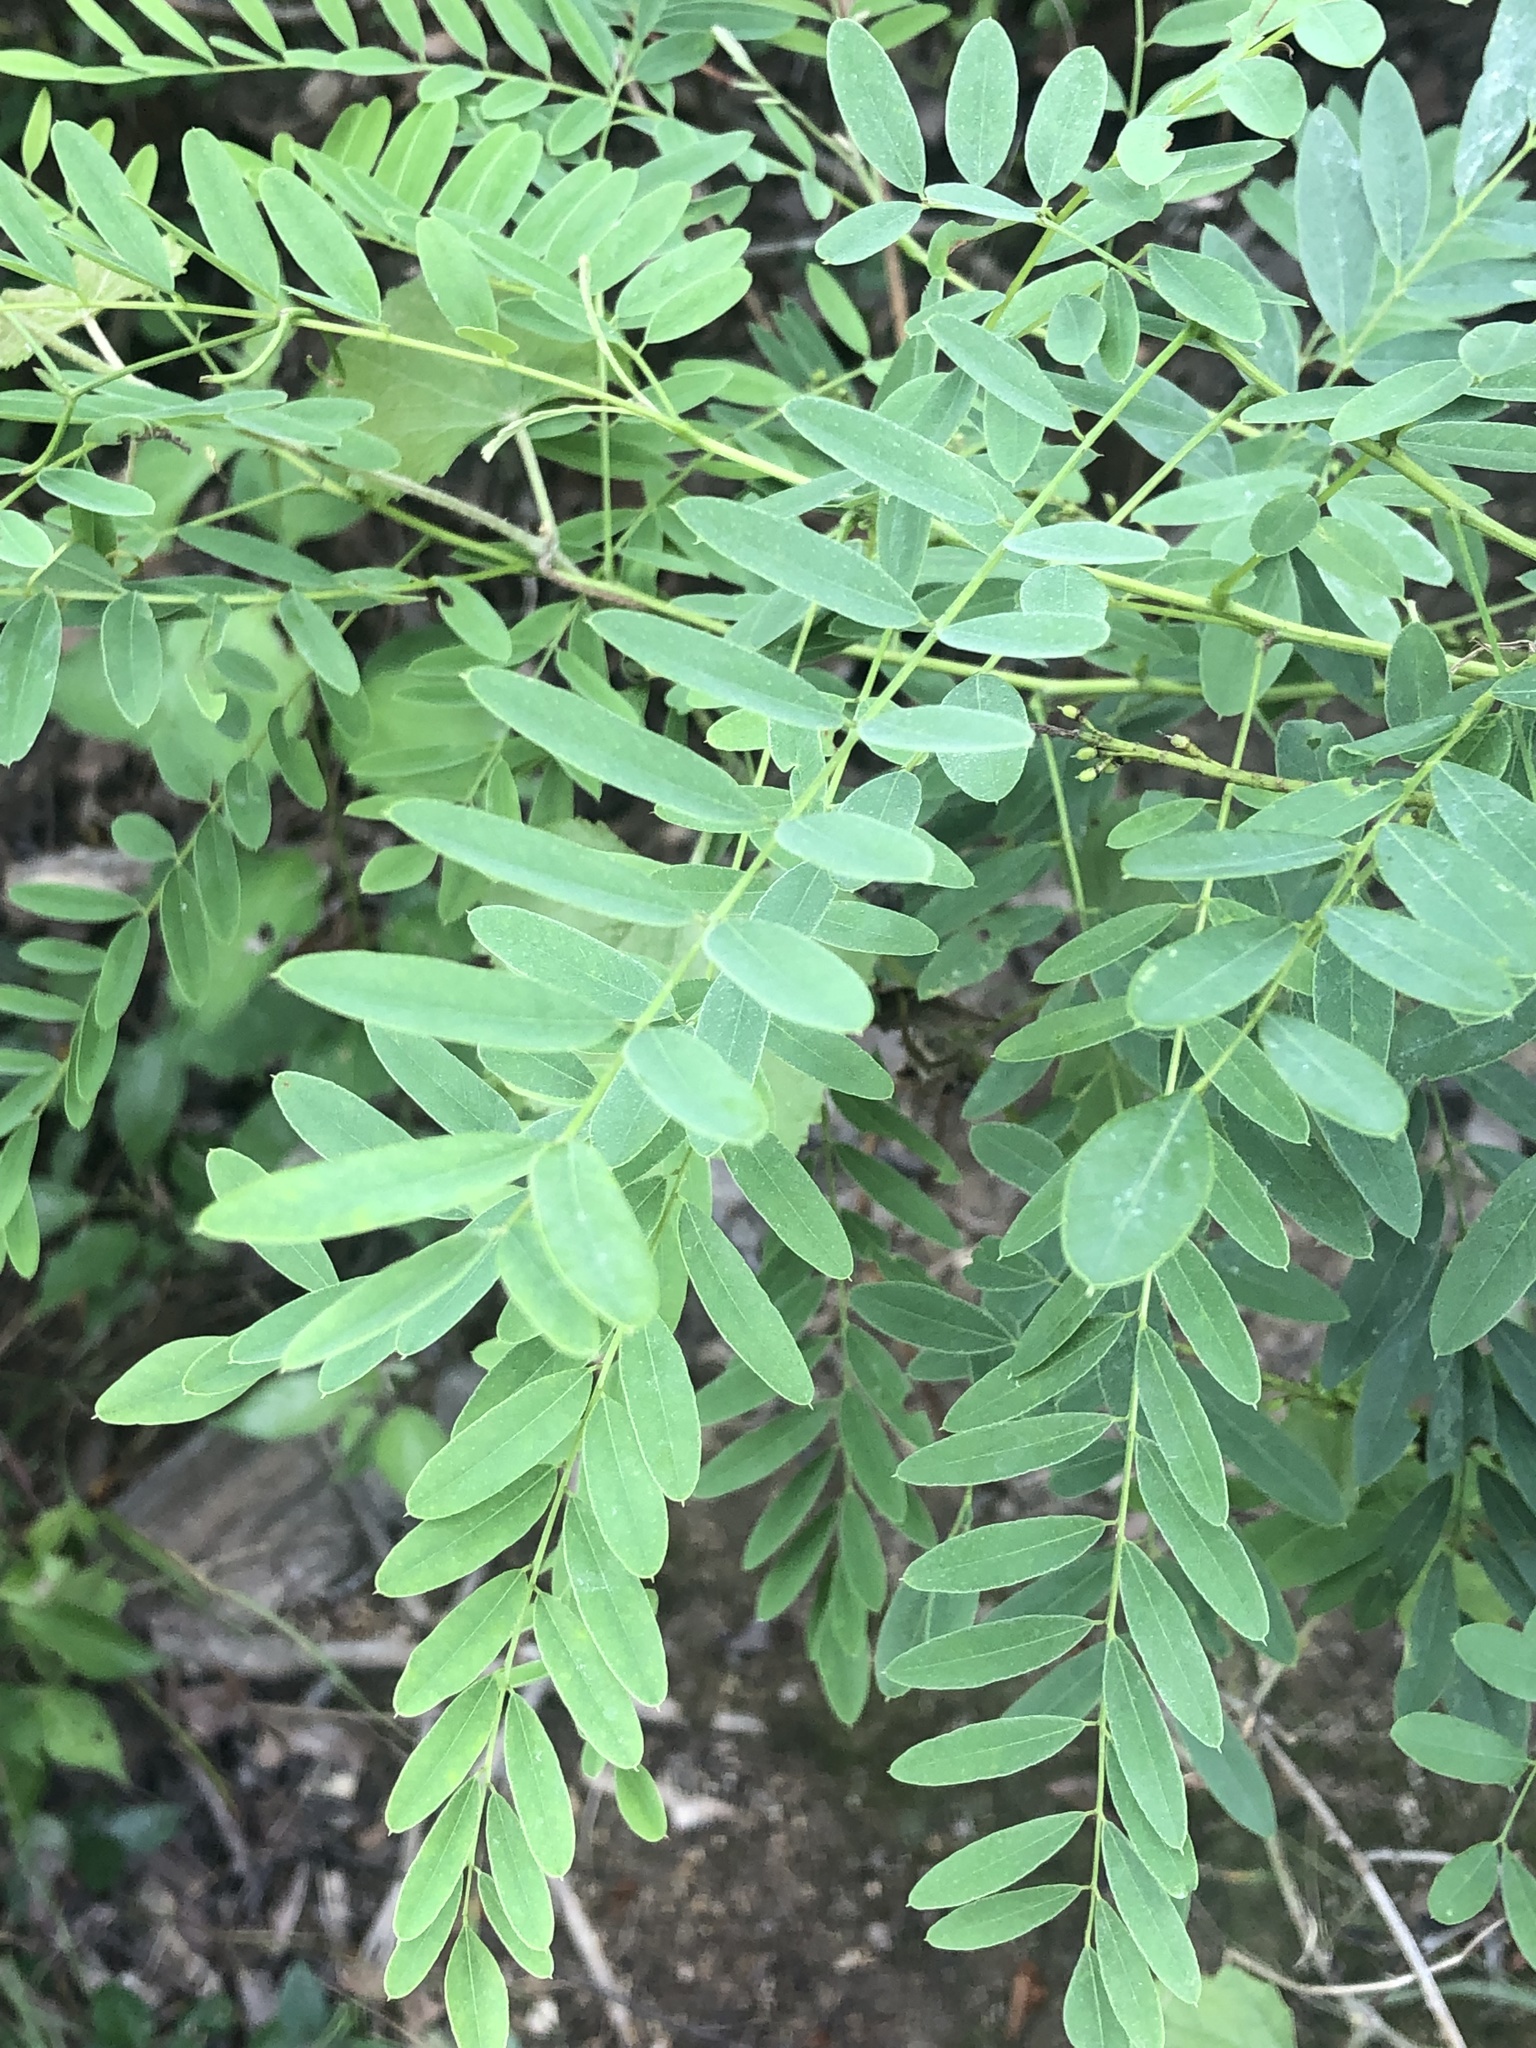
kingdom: Plantae
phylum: Tracheophyta
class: Magnoliopsida
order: Fabales
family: Fabaceae
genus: Amorpha
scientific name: Amorpha fruticosa
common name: False indigo
